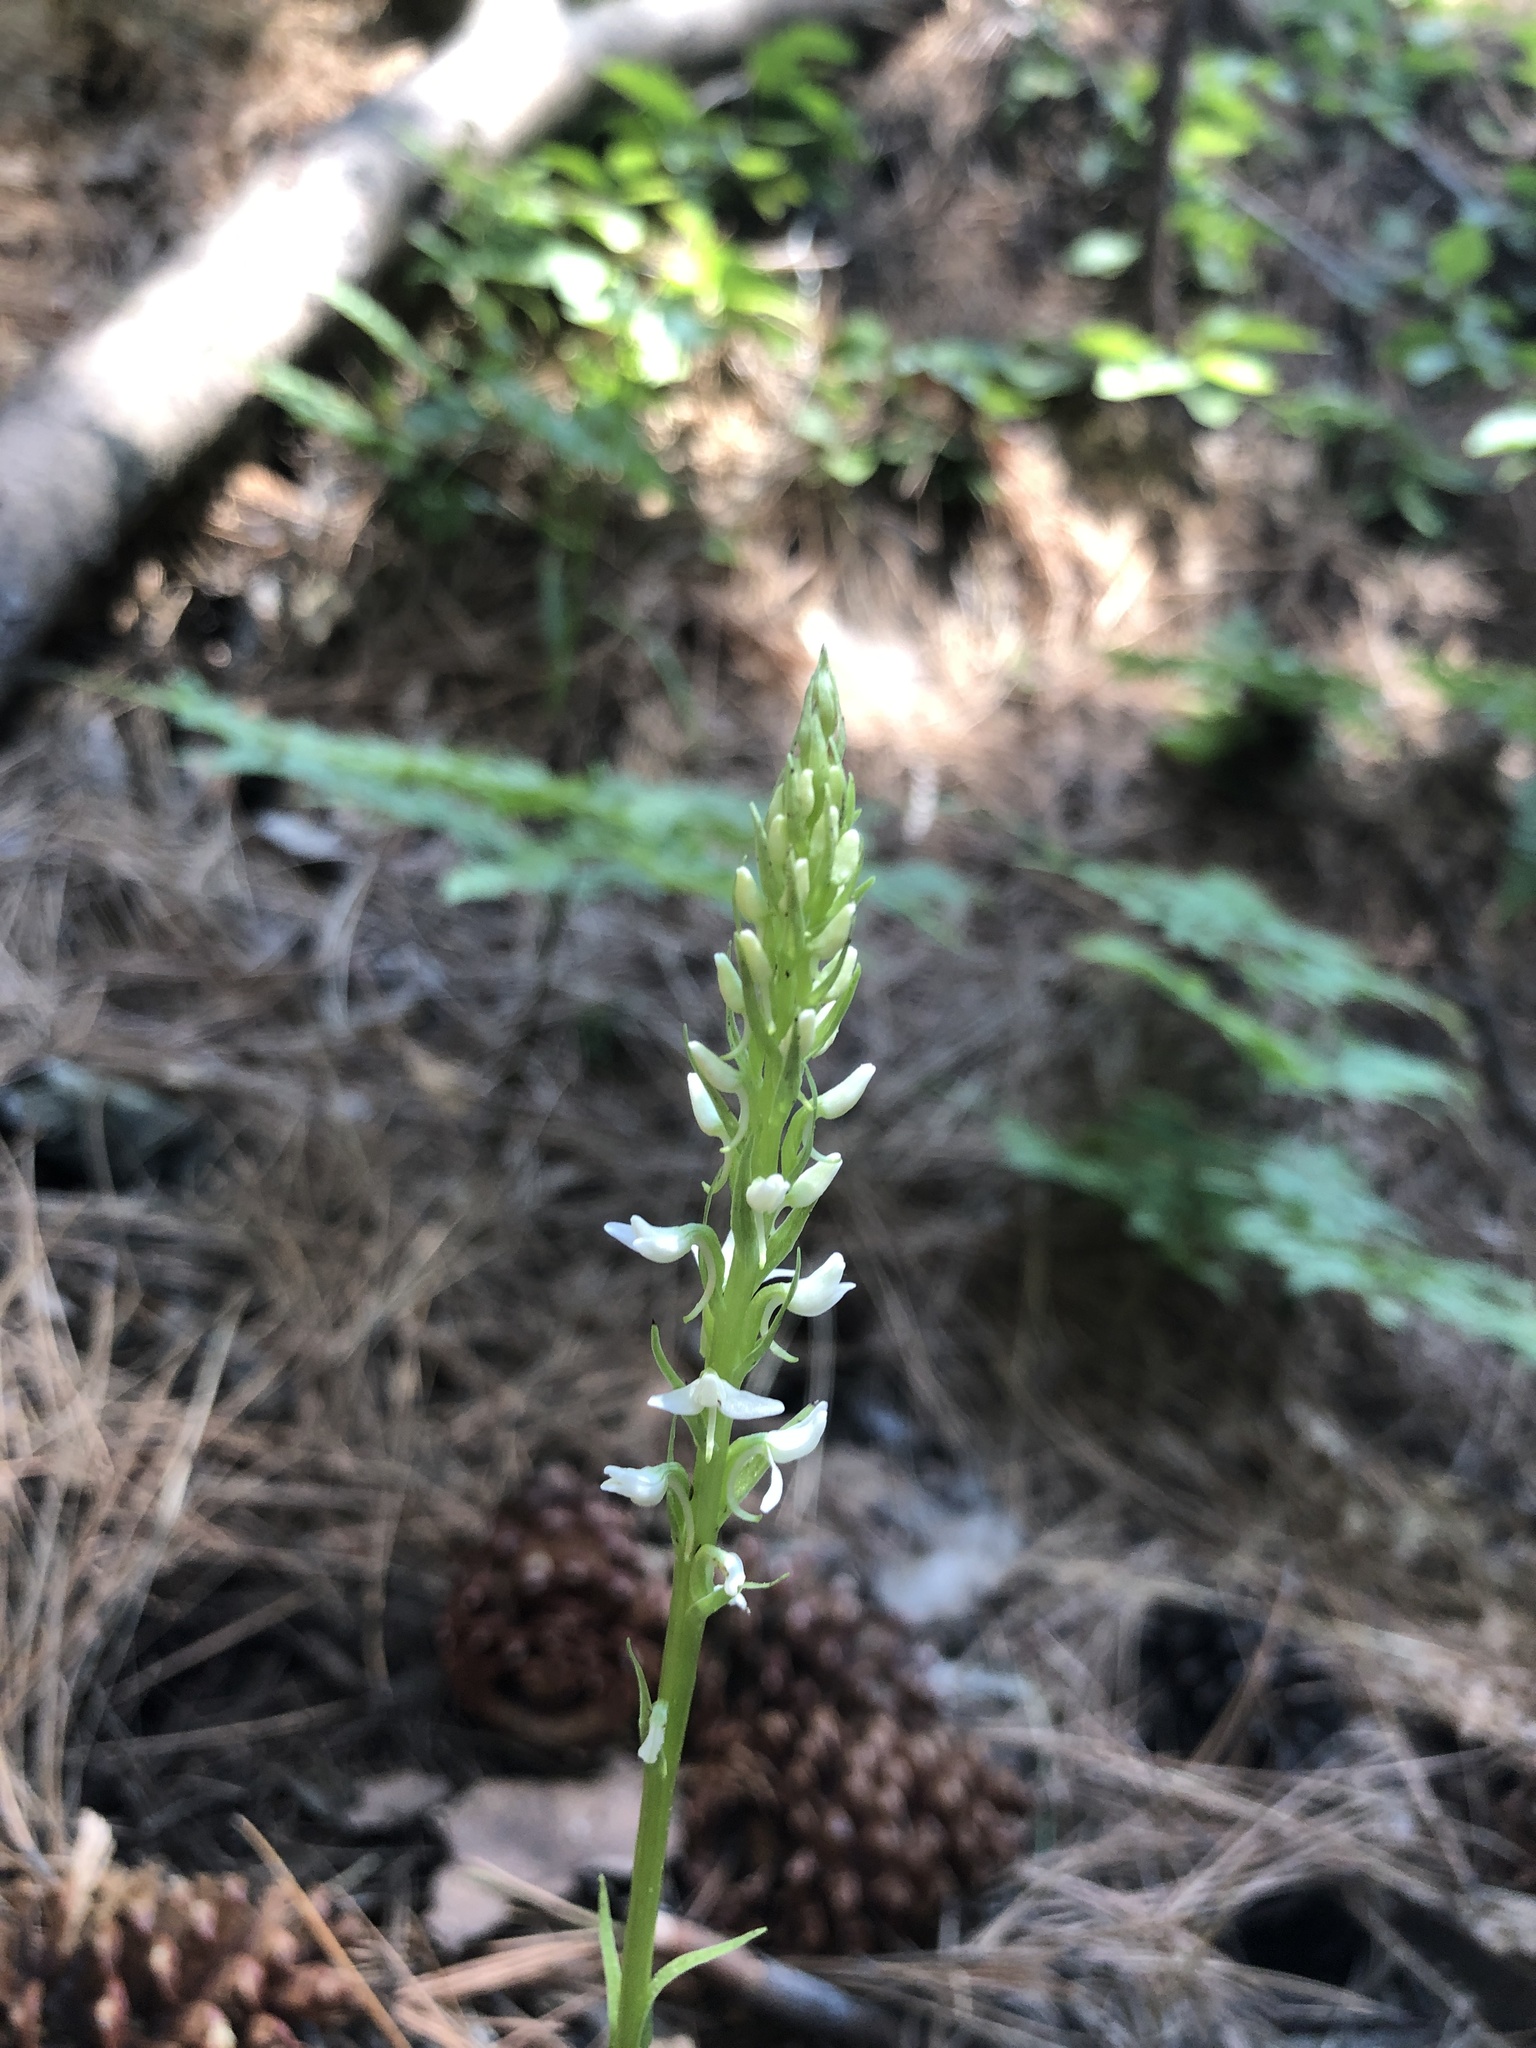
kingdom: Plantae
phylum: Tracheophyta
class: Liliopsida
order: Asparagales
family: Orchidaceae
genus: Platanthera
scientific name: Platanthera dilatata
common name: Bog candles
